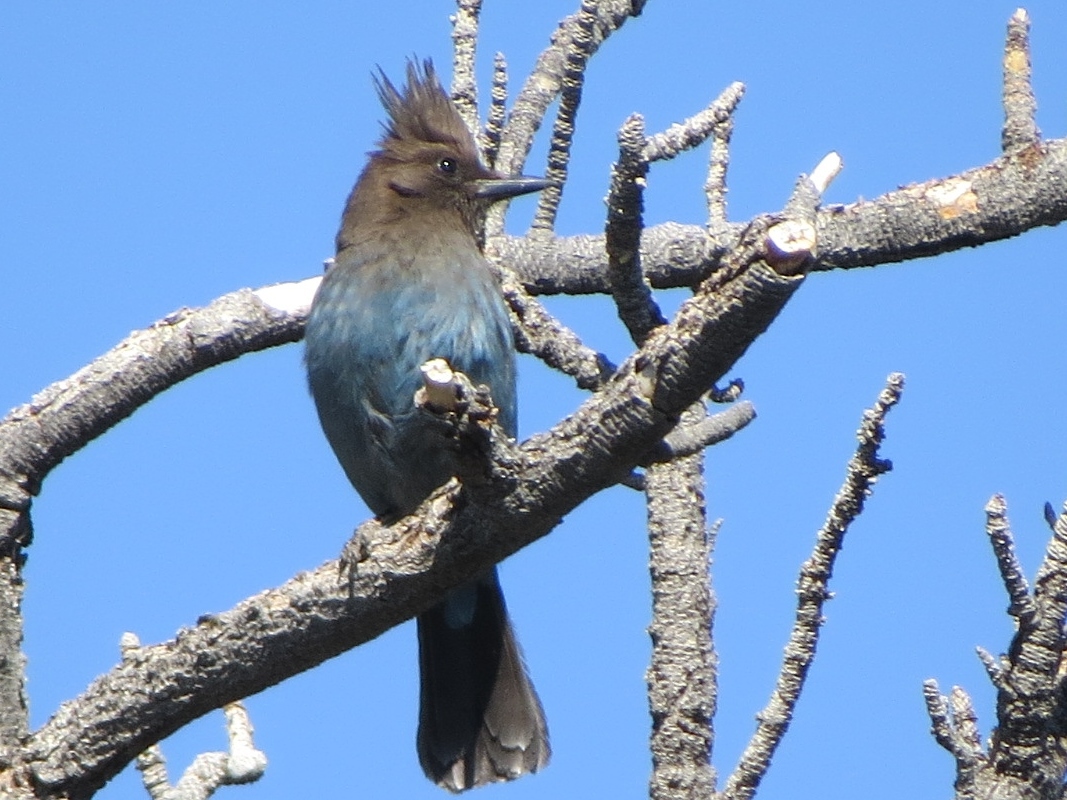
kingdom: Animalia
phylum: Chordata
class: Aves
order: Passeriformes
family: Corvidae
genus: Cyanocitta
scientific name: Cyanocitta stelleri
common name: Steller's jay
